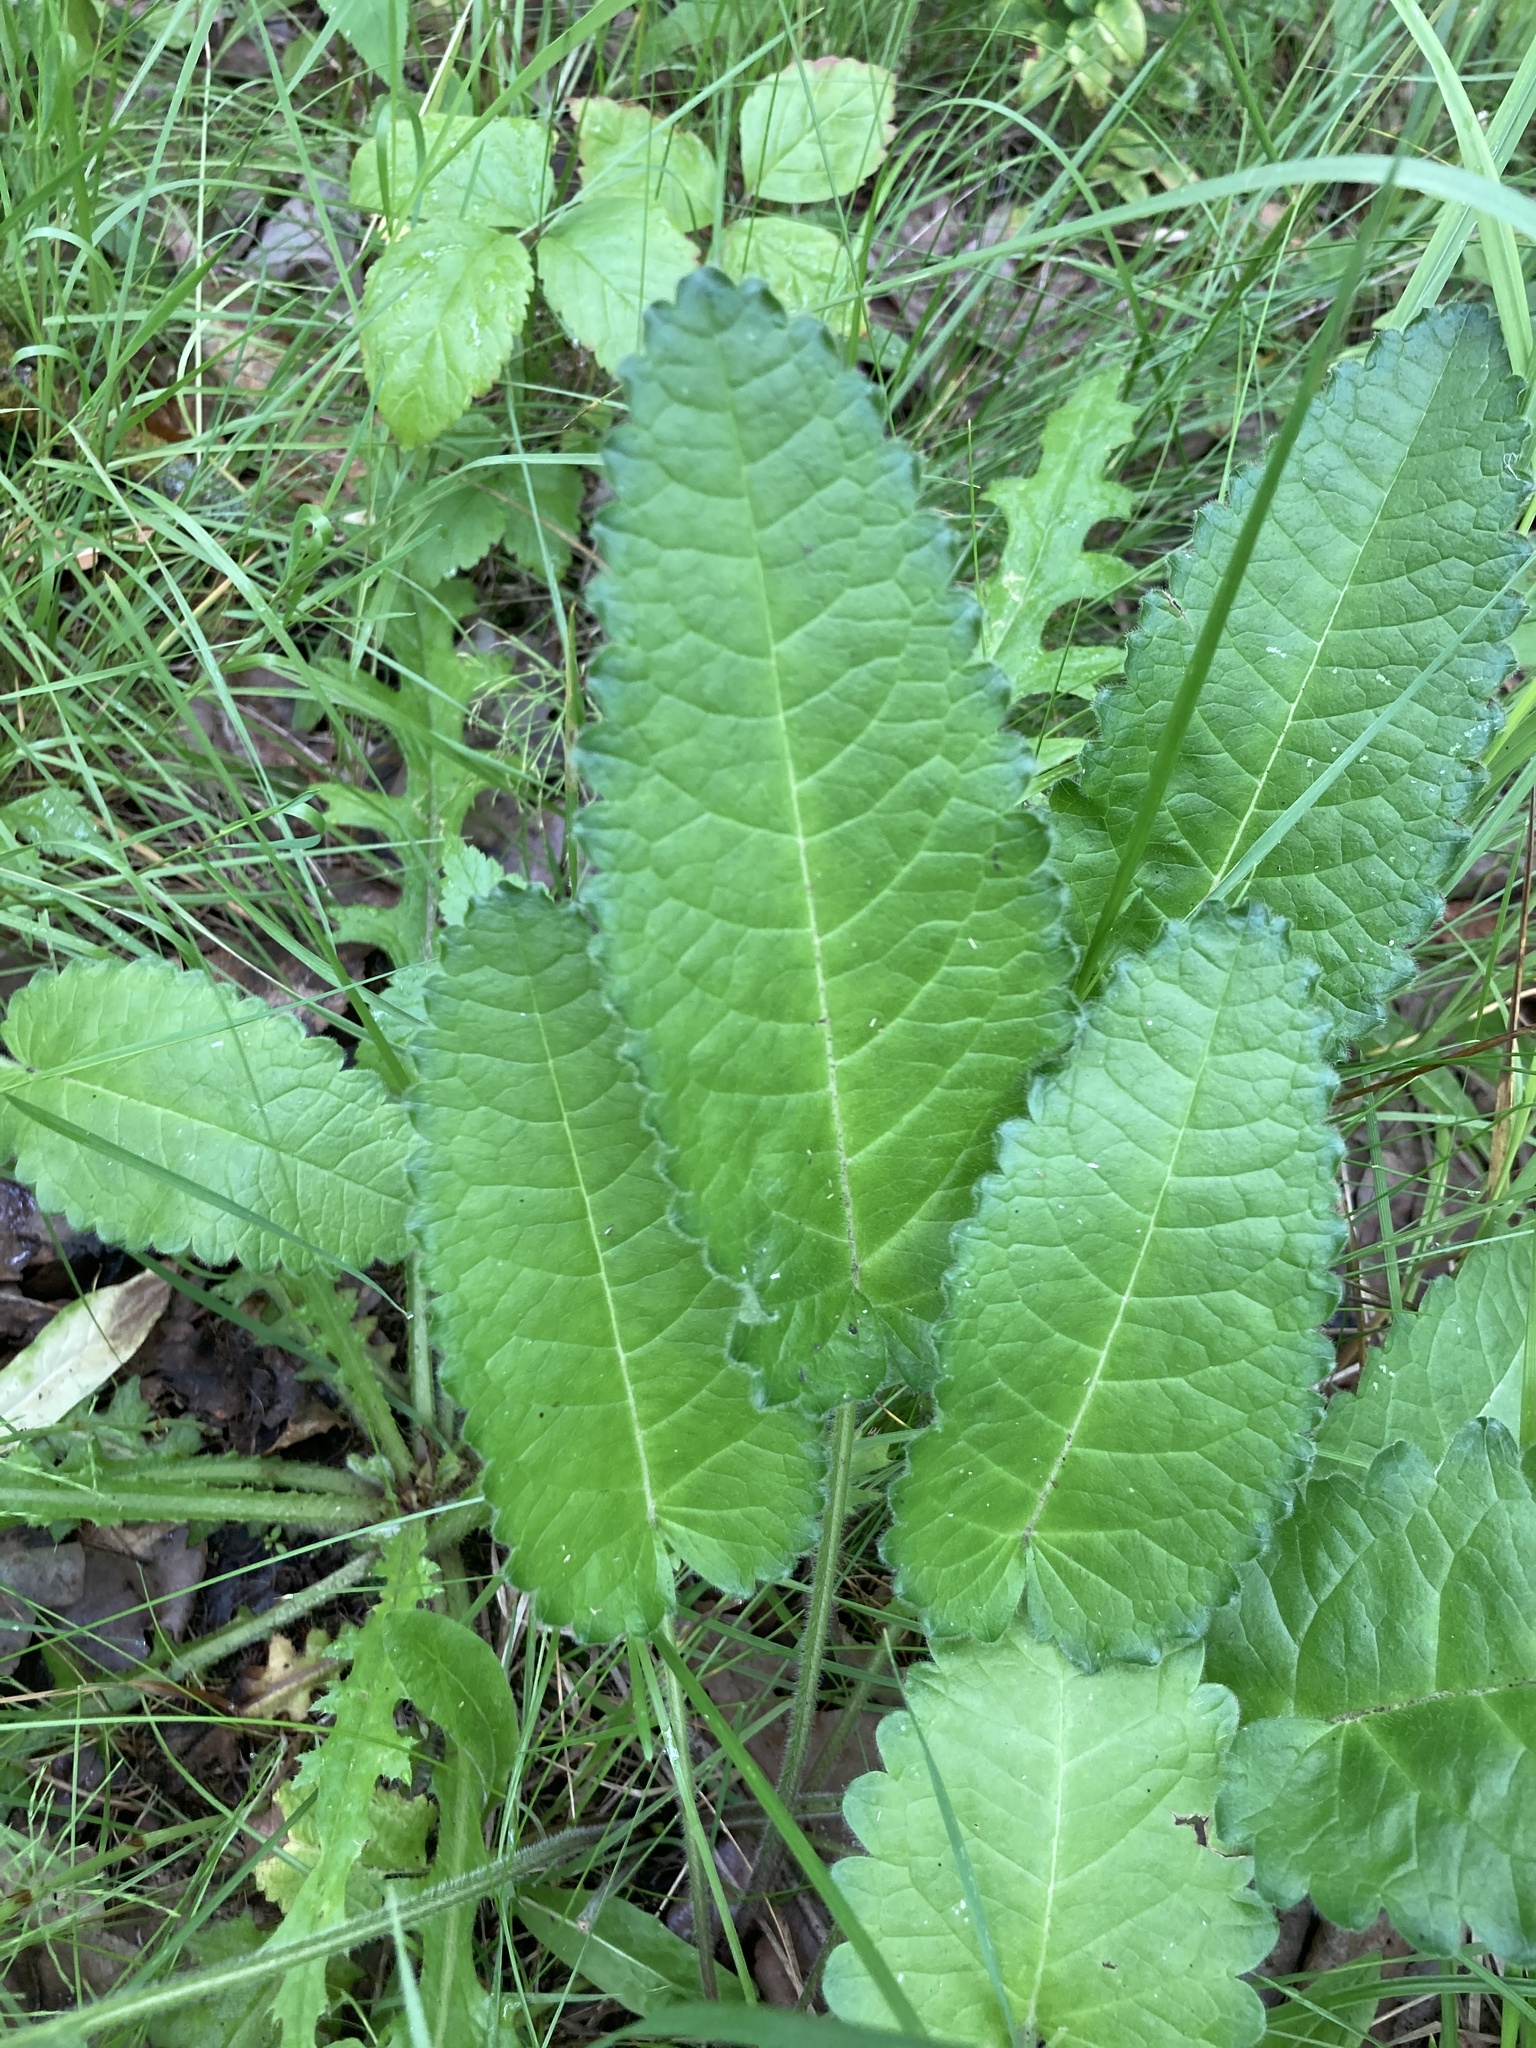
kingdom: Plantae
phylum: Tracheophyta
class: Magnoliopsida
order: Lamiales
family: Lamiaceae
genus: Betonica
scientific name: Betonica officinalis
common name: Bishop's-wort
